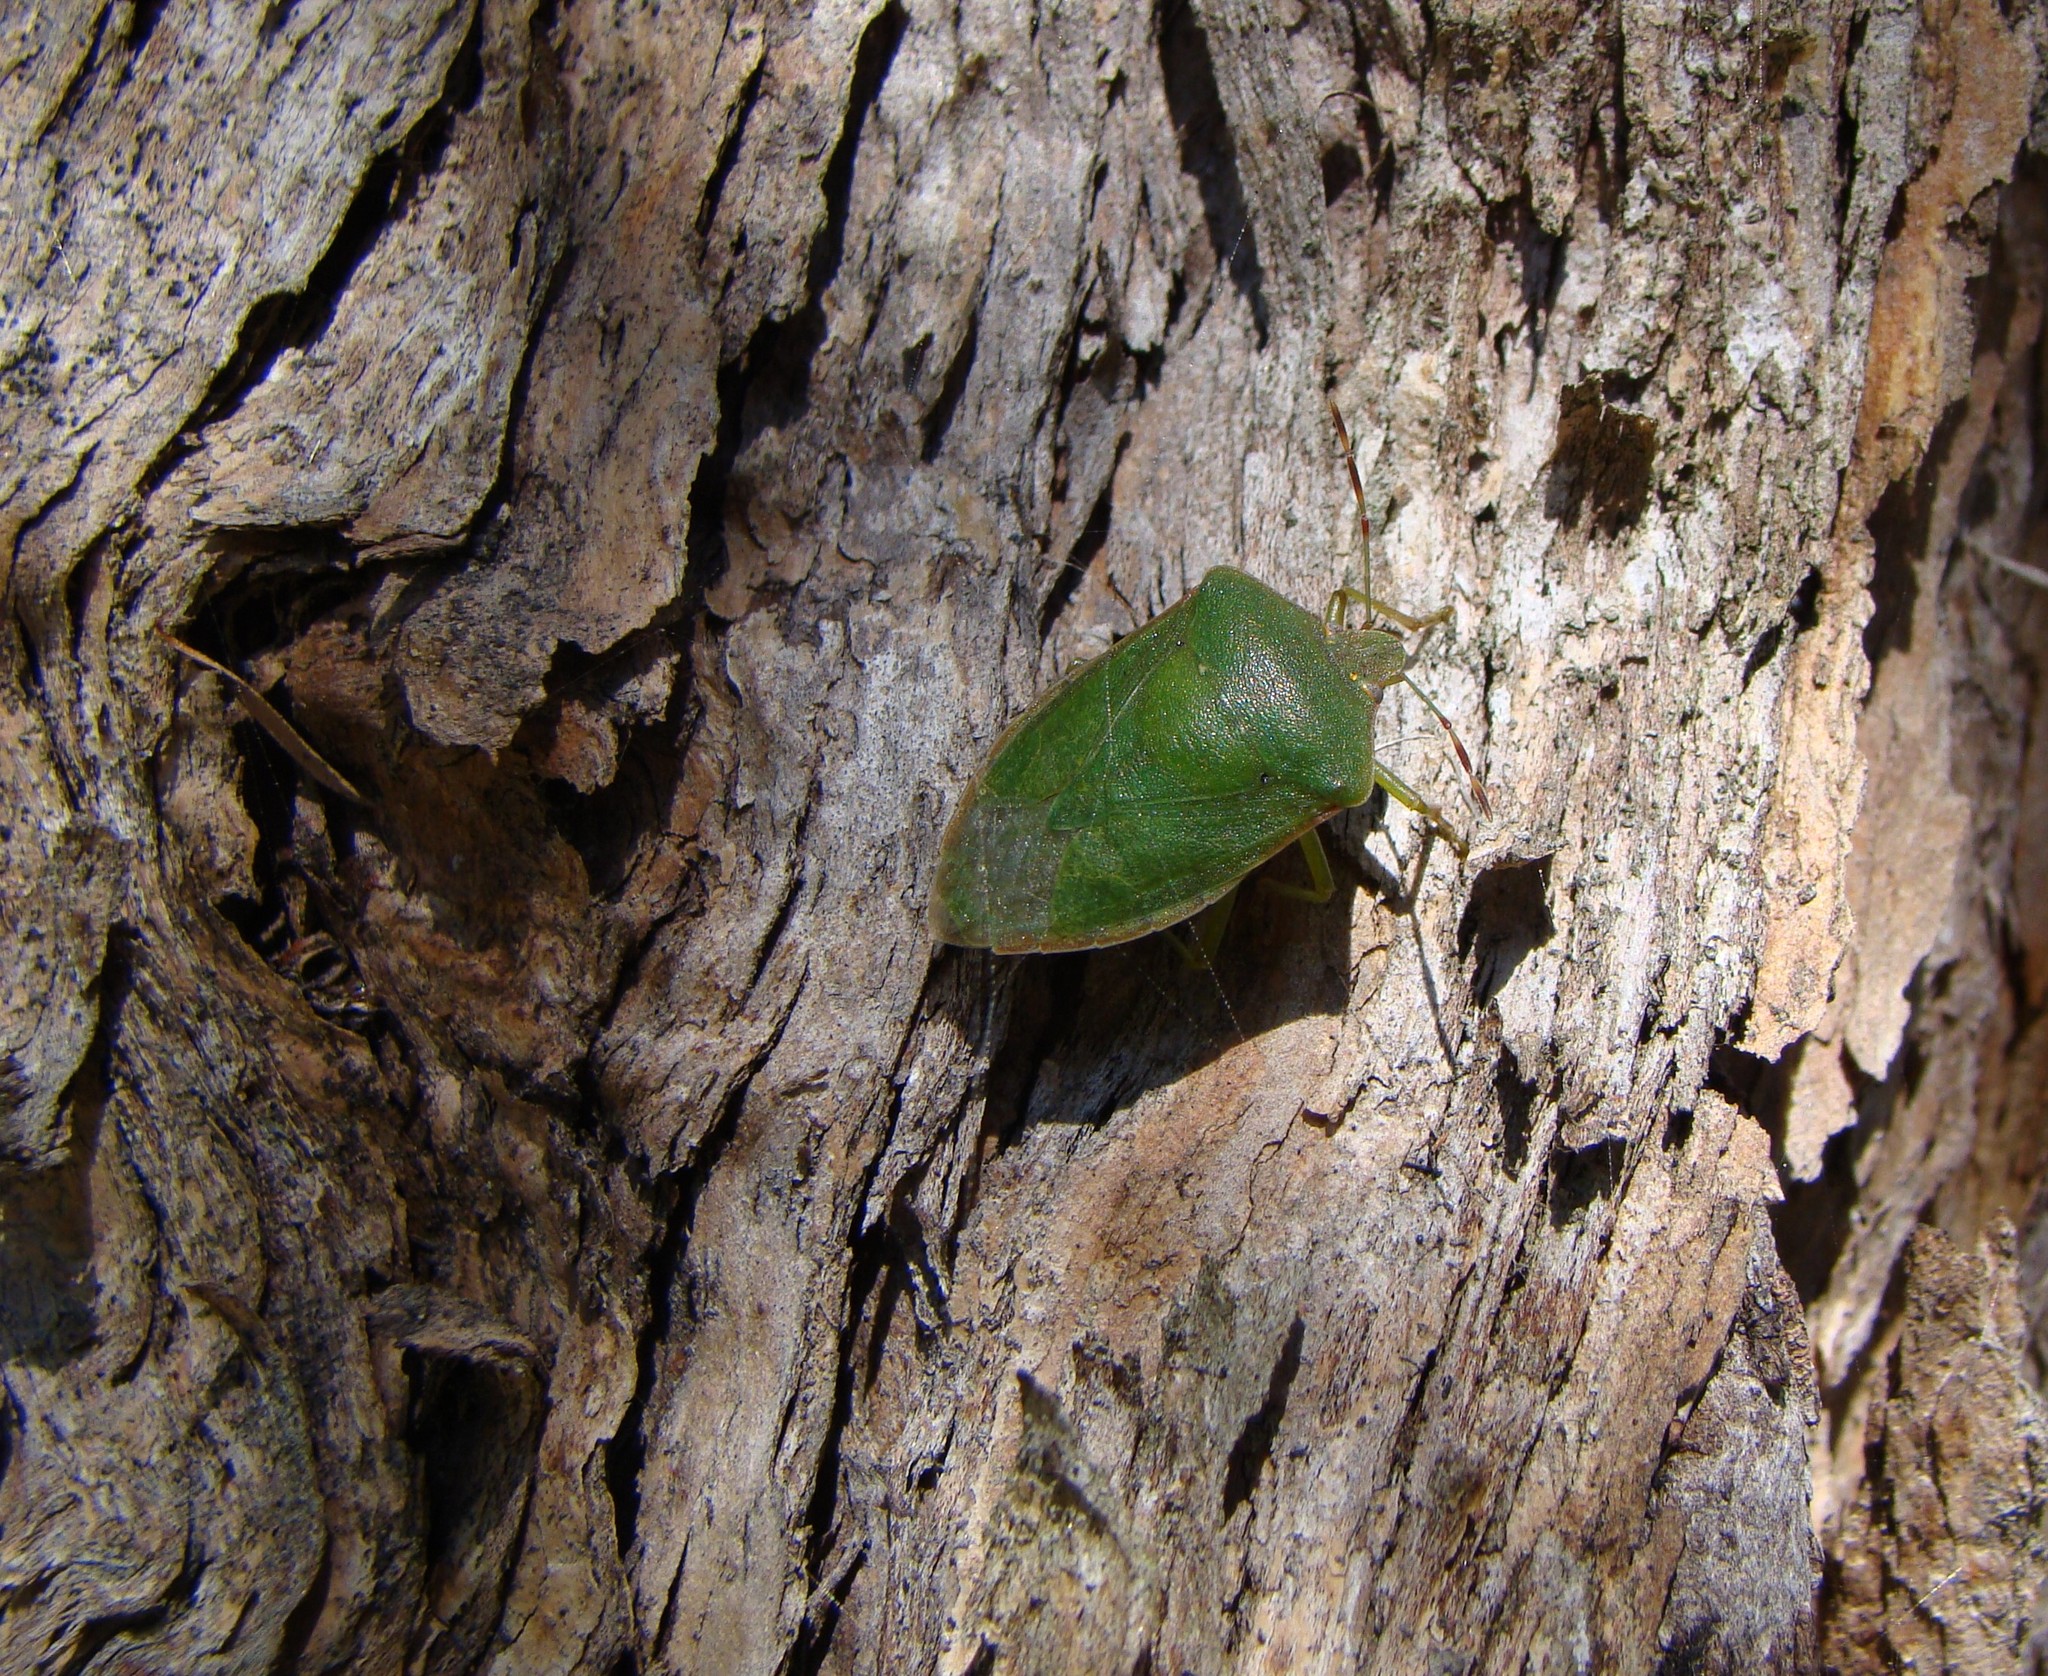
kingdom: Animalia
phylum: Arthropoda
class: Insecta
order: Hemiptera
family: Pentatomidae
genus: Nezara
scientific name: Nezara viridula
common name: Southern green stink bug
